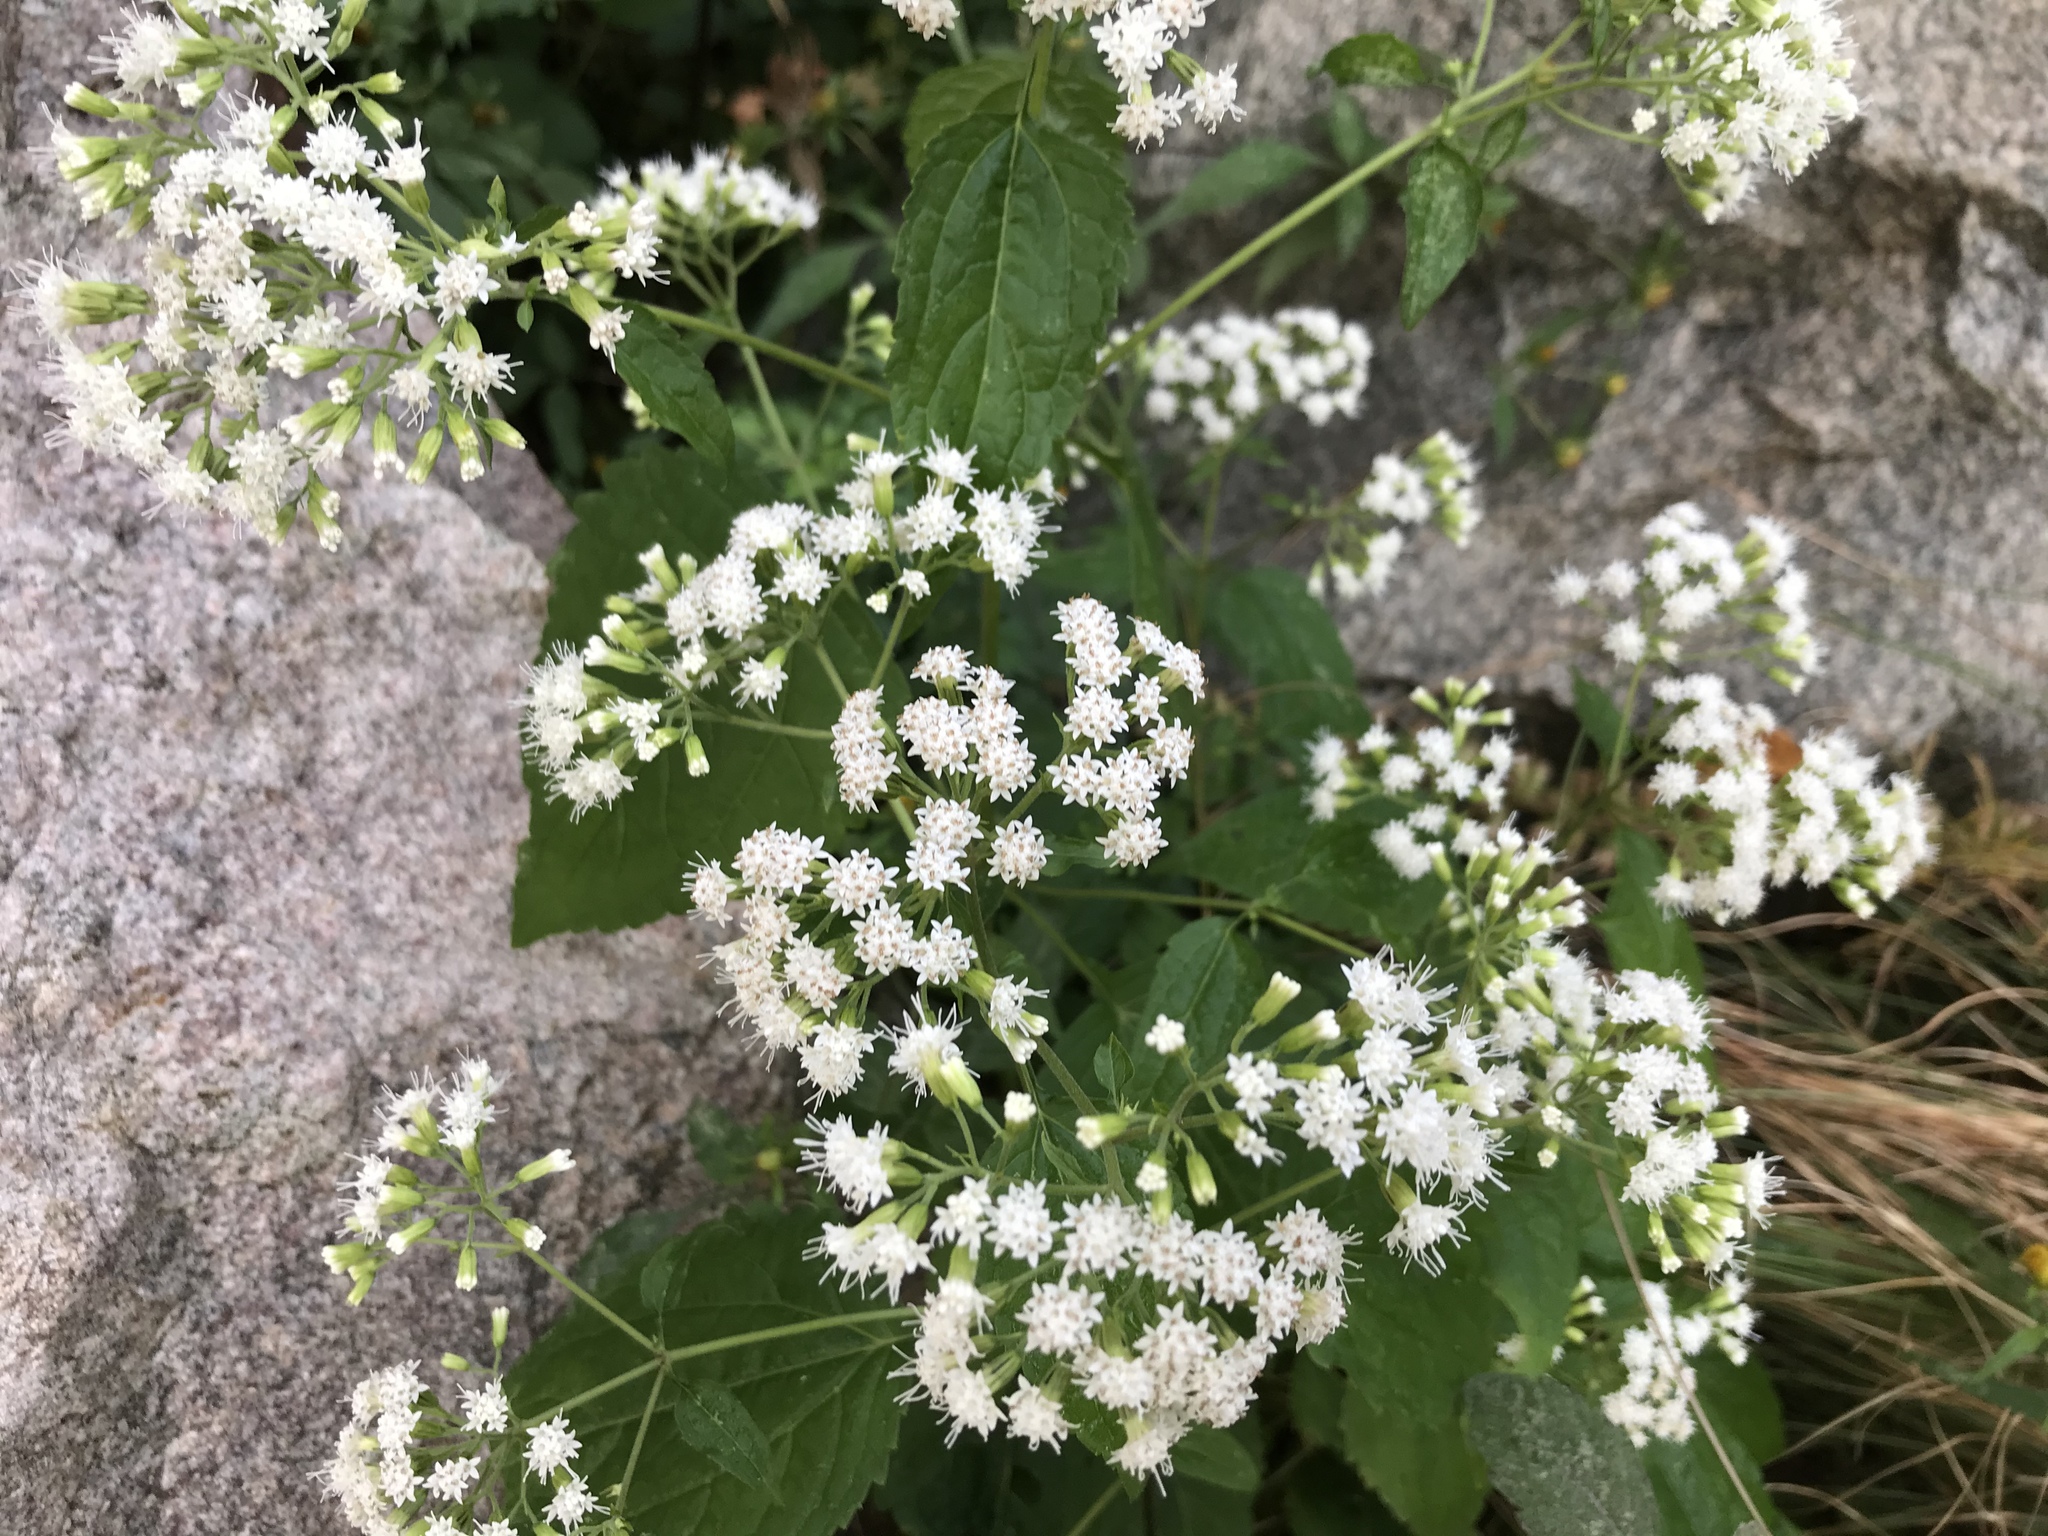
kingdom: Plantae
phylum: Tracheophyta
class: Magnoliopsida
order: Asterales
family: Asteraceae
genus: Ageratina
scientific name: Ageratina altissima
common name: White snakeroot
